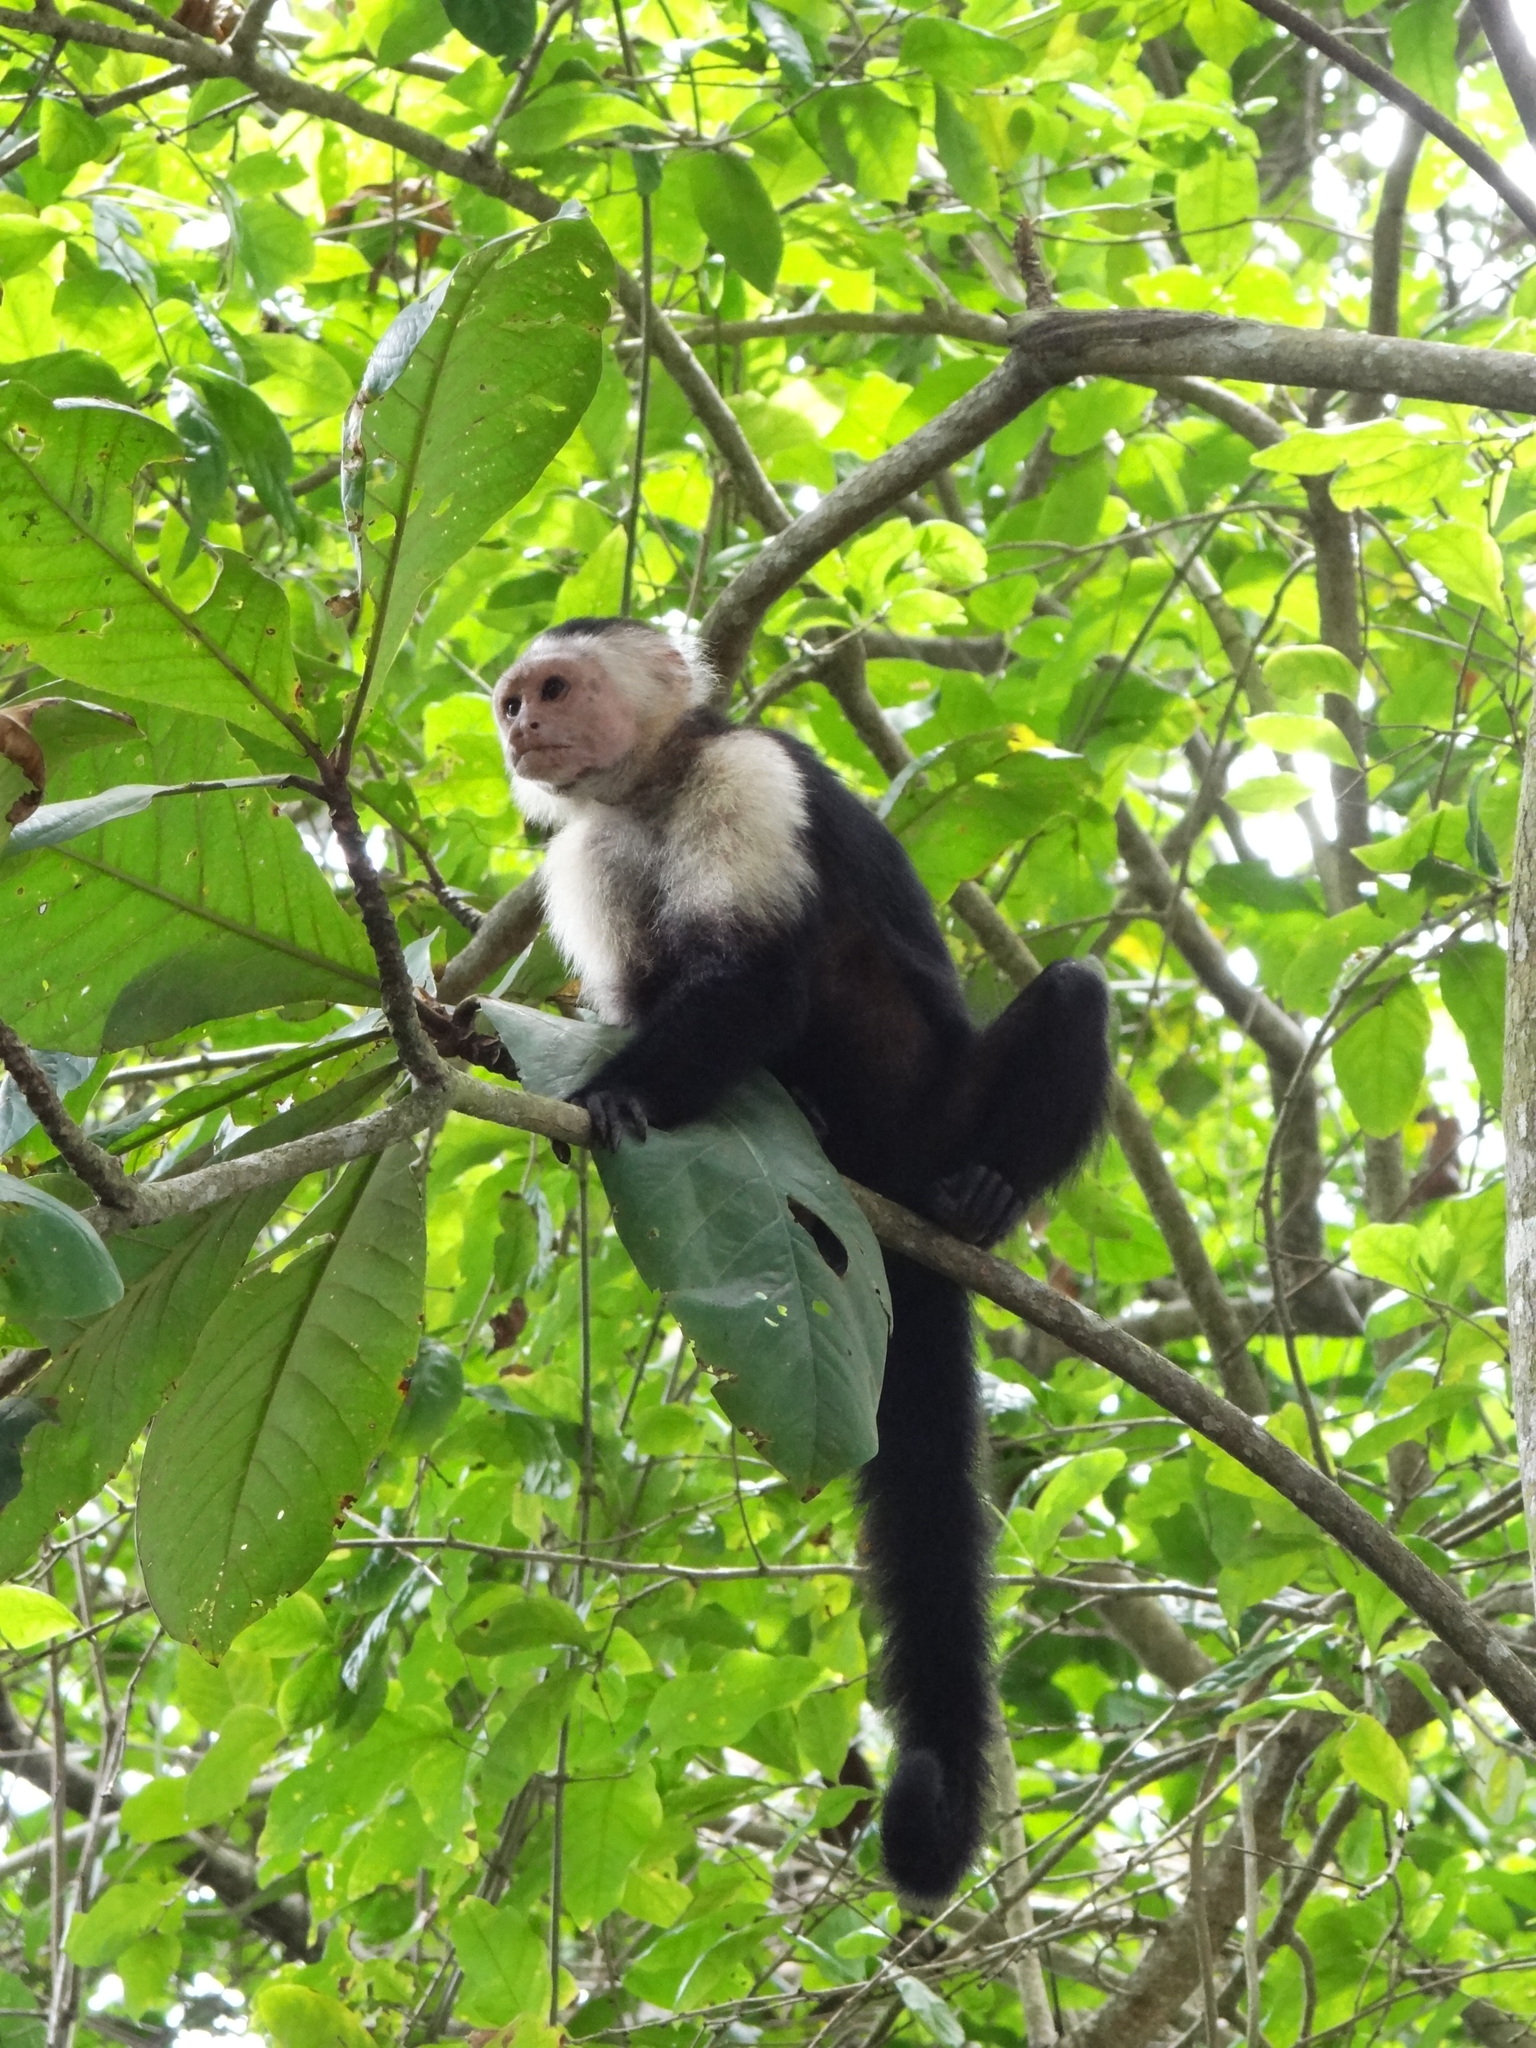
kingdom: Animalia
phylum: Chordata
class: Mammalia
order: Primates
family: Cebidae
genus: Cebus
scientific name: Cebus imitator
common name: Panamanian white-faced capuchin
